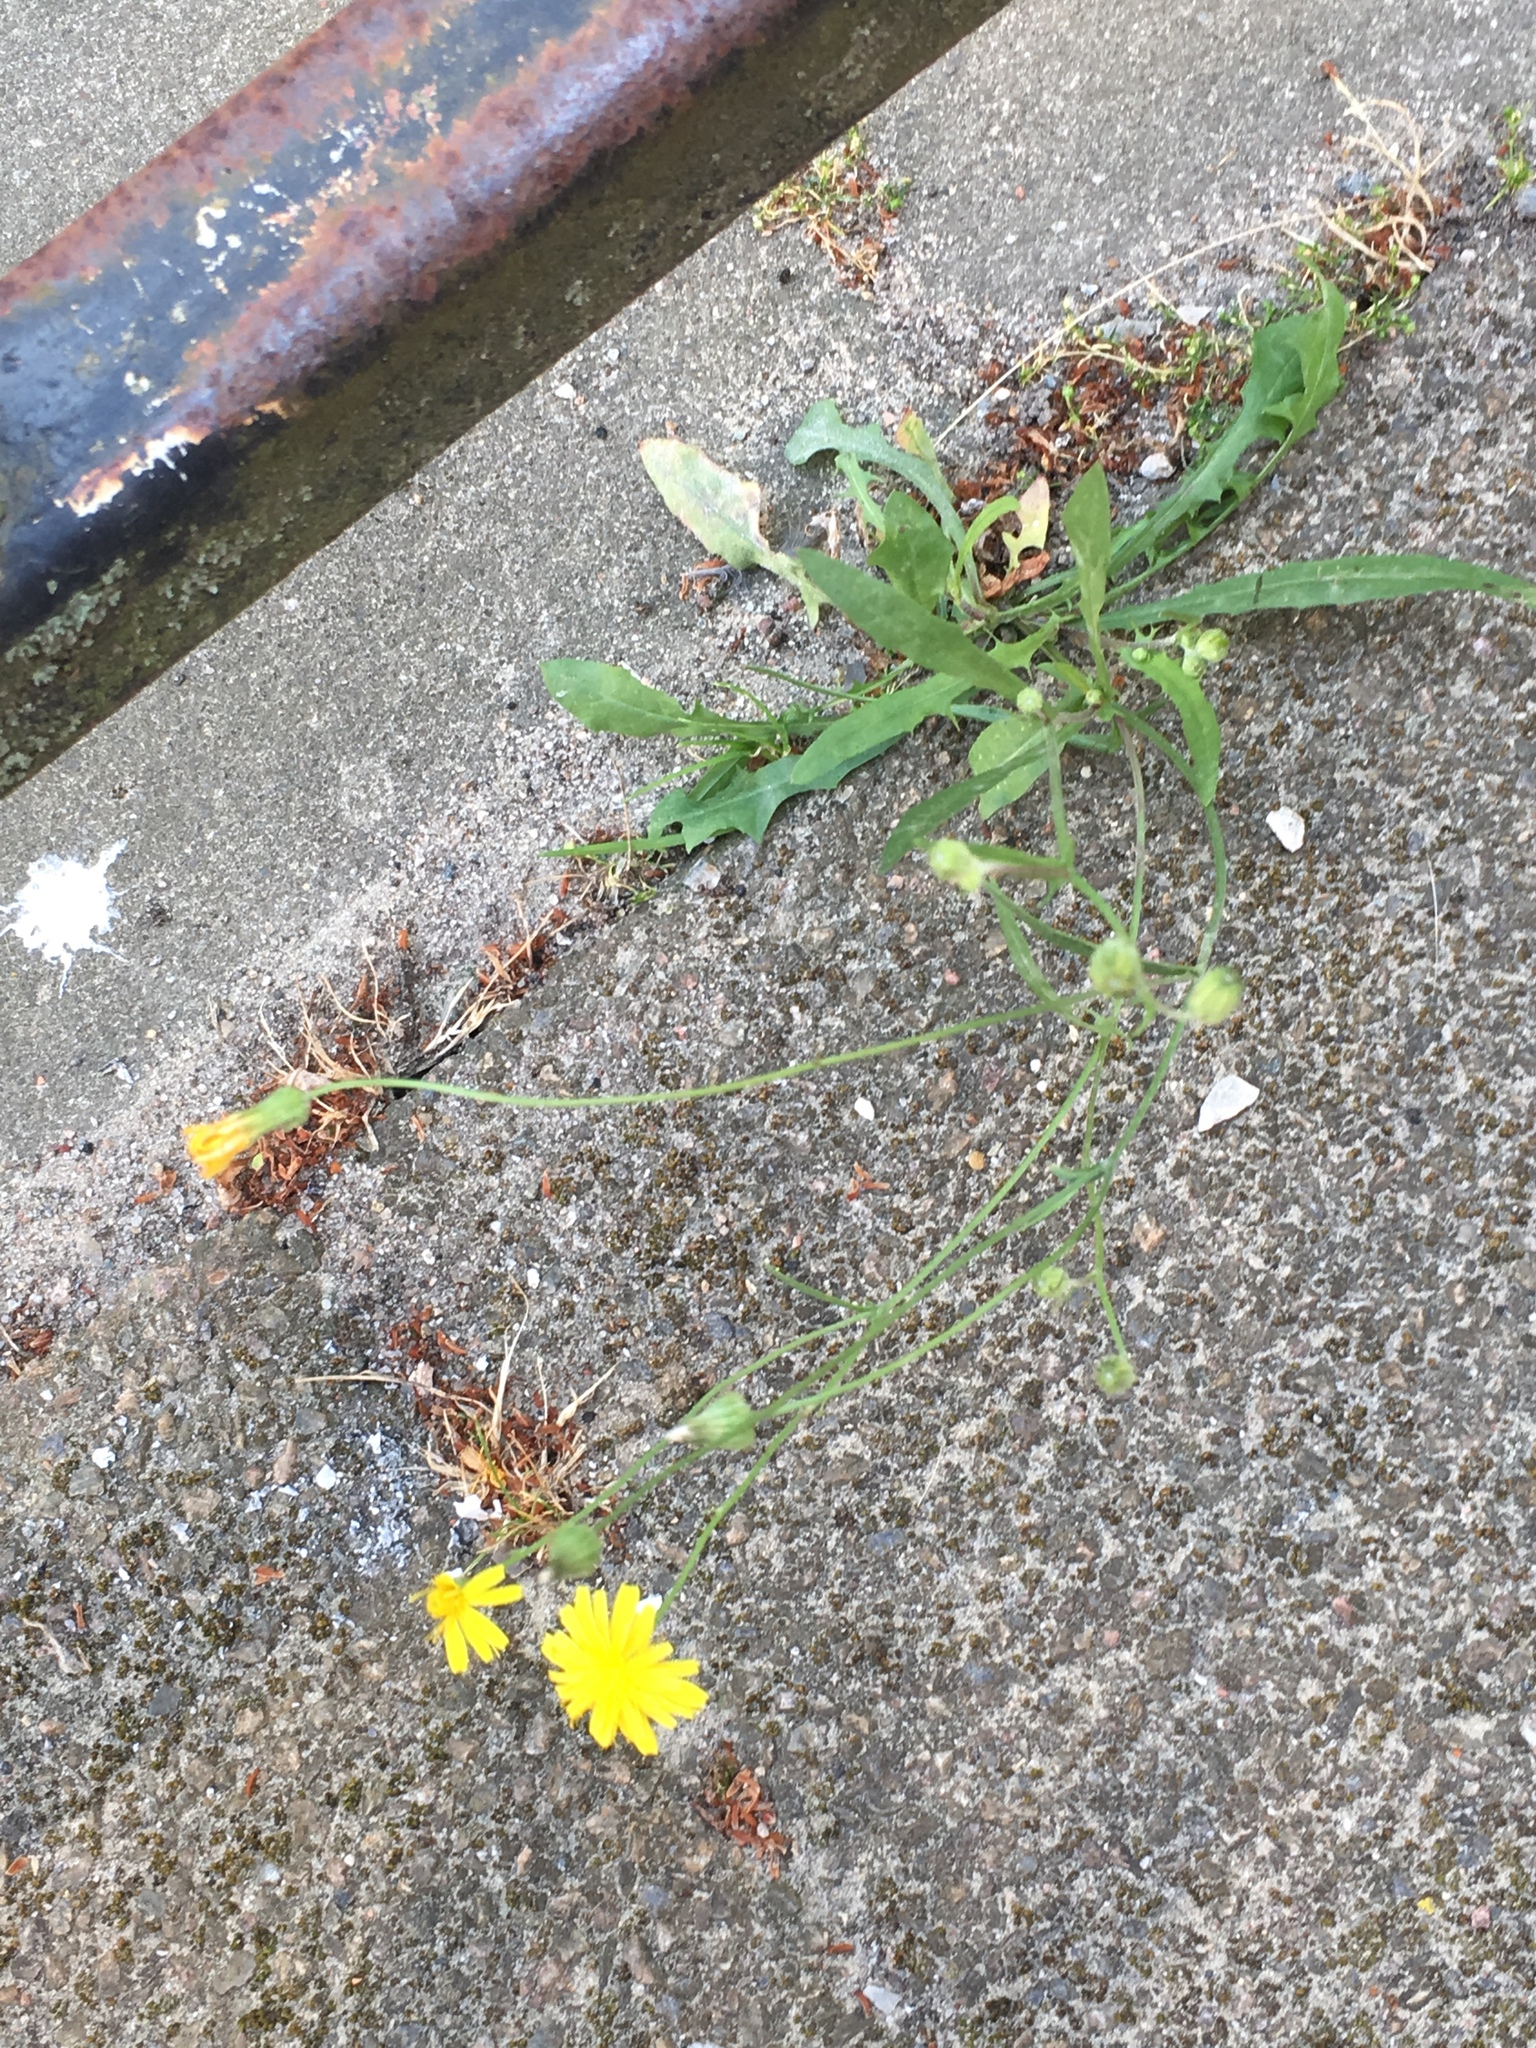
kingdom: Plantae
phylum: Tracheophyta
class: Magnoliopsida
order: Asterales
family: Asteraceae
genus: Scorzoneroides
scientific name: Scorzoneroides autumnalis
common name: Autumn hawkbit
